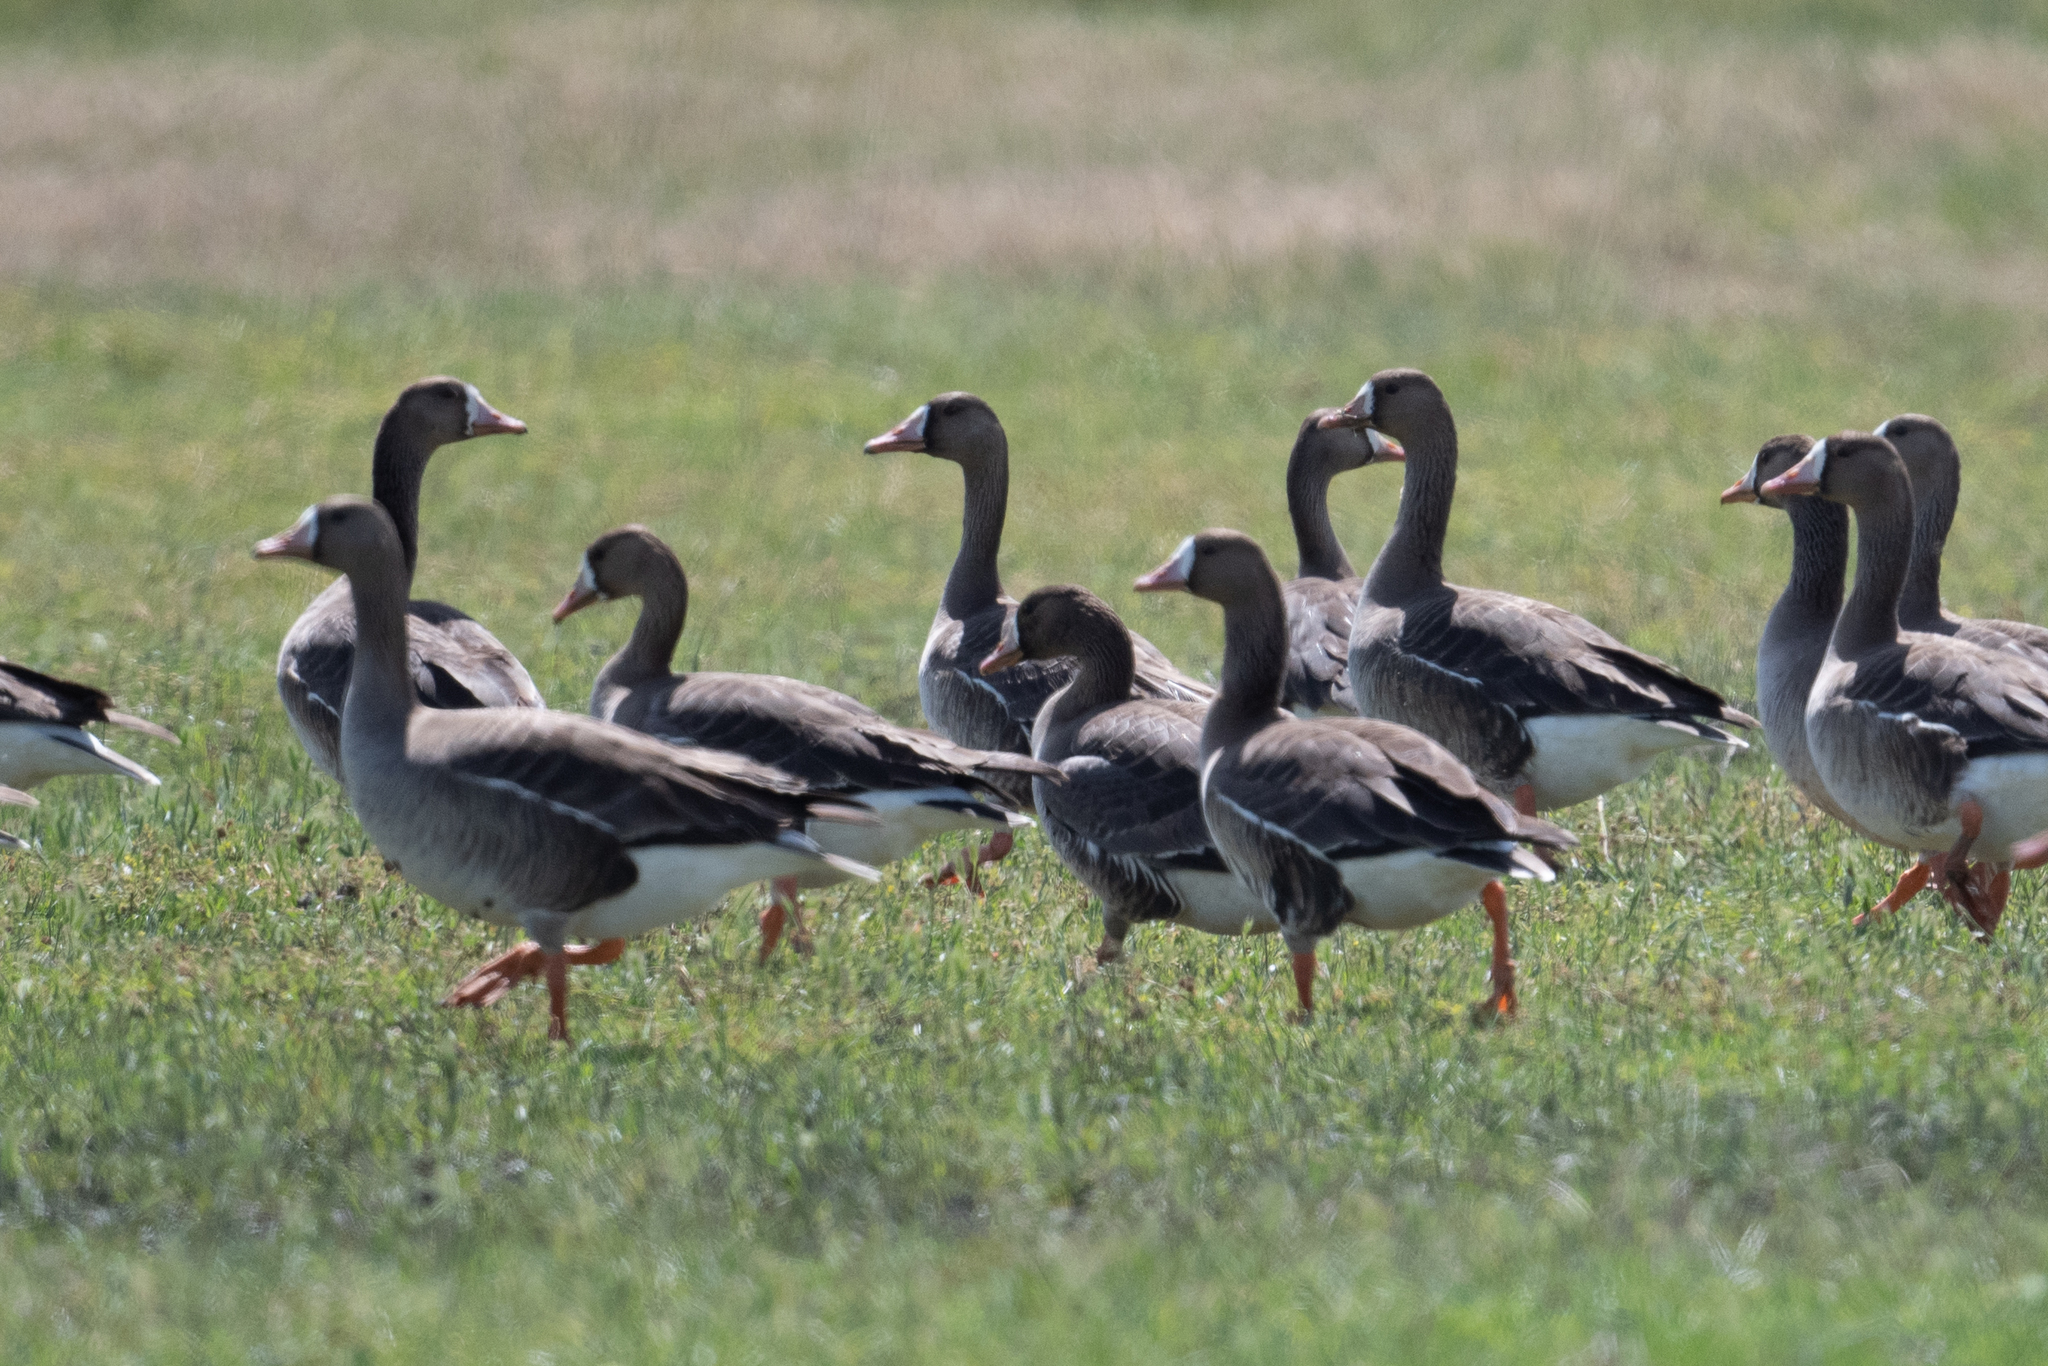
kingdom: Animalia
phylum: Chordata
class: Aves
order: Anseriformes
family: Anatidae
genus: Anser
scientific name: Anser albifrons
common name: Greater white-fronted goose
